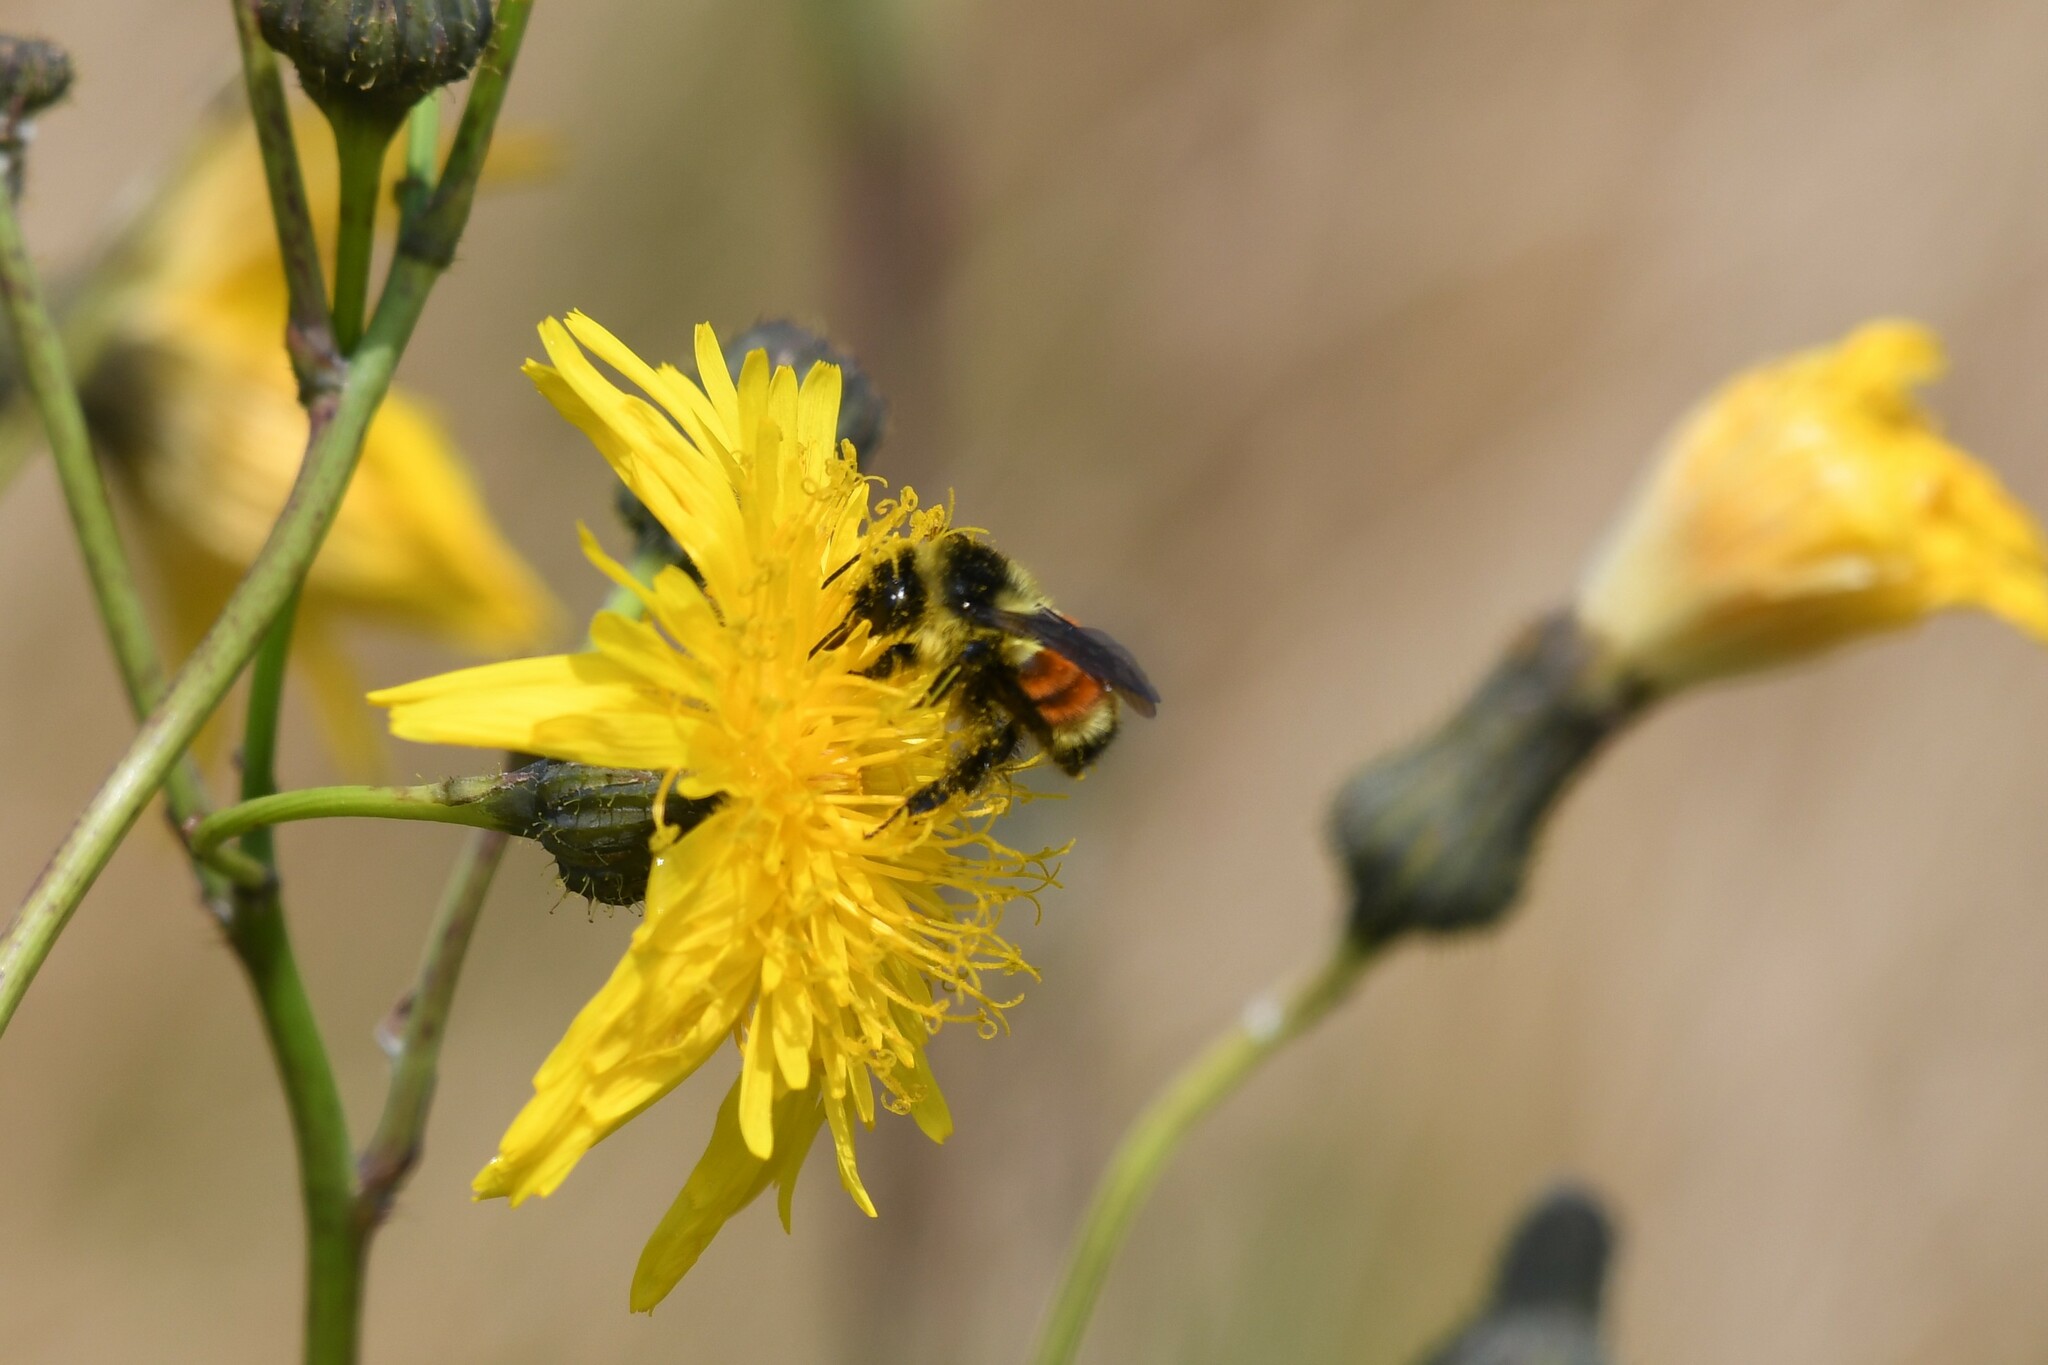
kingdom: Animalia
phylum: Arthropoda
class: Insecta
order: Hymenoptera
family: Apidae
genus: Bombus
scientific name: Bombus ternarius
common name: Tri-colored bumble bee
